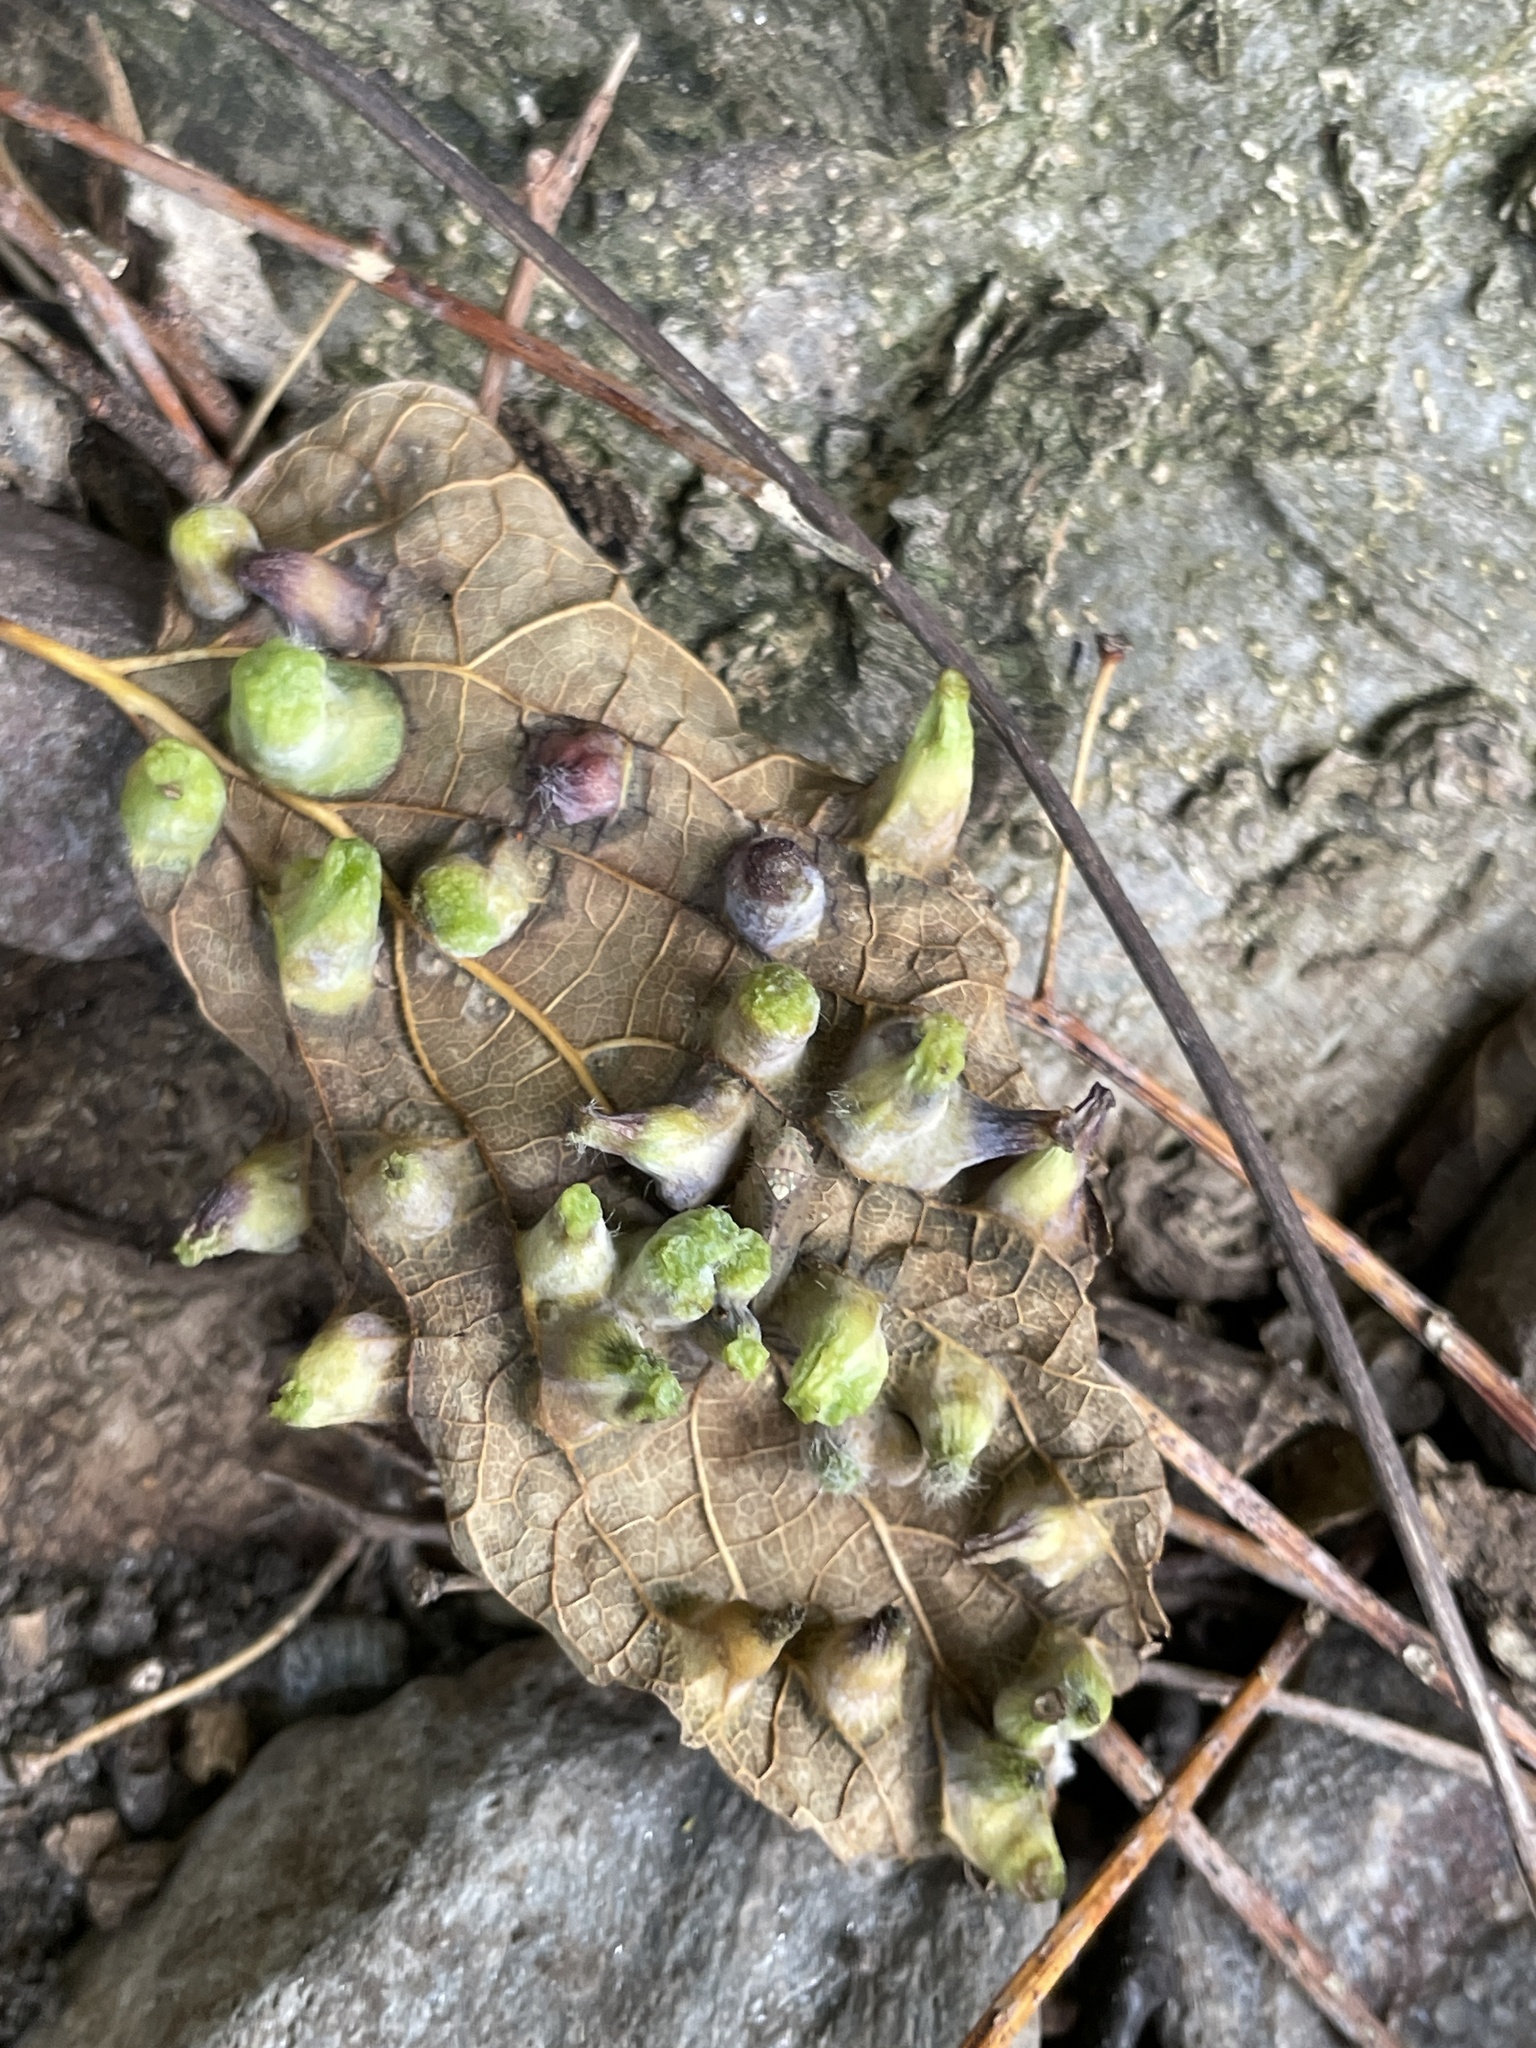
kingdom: Animalia
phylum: Arthropoda
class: Insecta
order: Hemiptera
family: Aphalaridae
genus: Pachypsylla
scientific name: Pachypsylla celtidismamma
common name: Hackberry nipplegall psyllid
